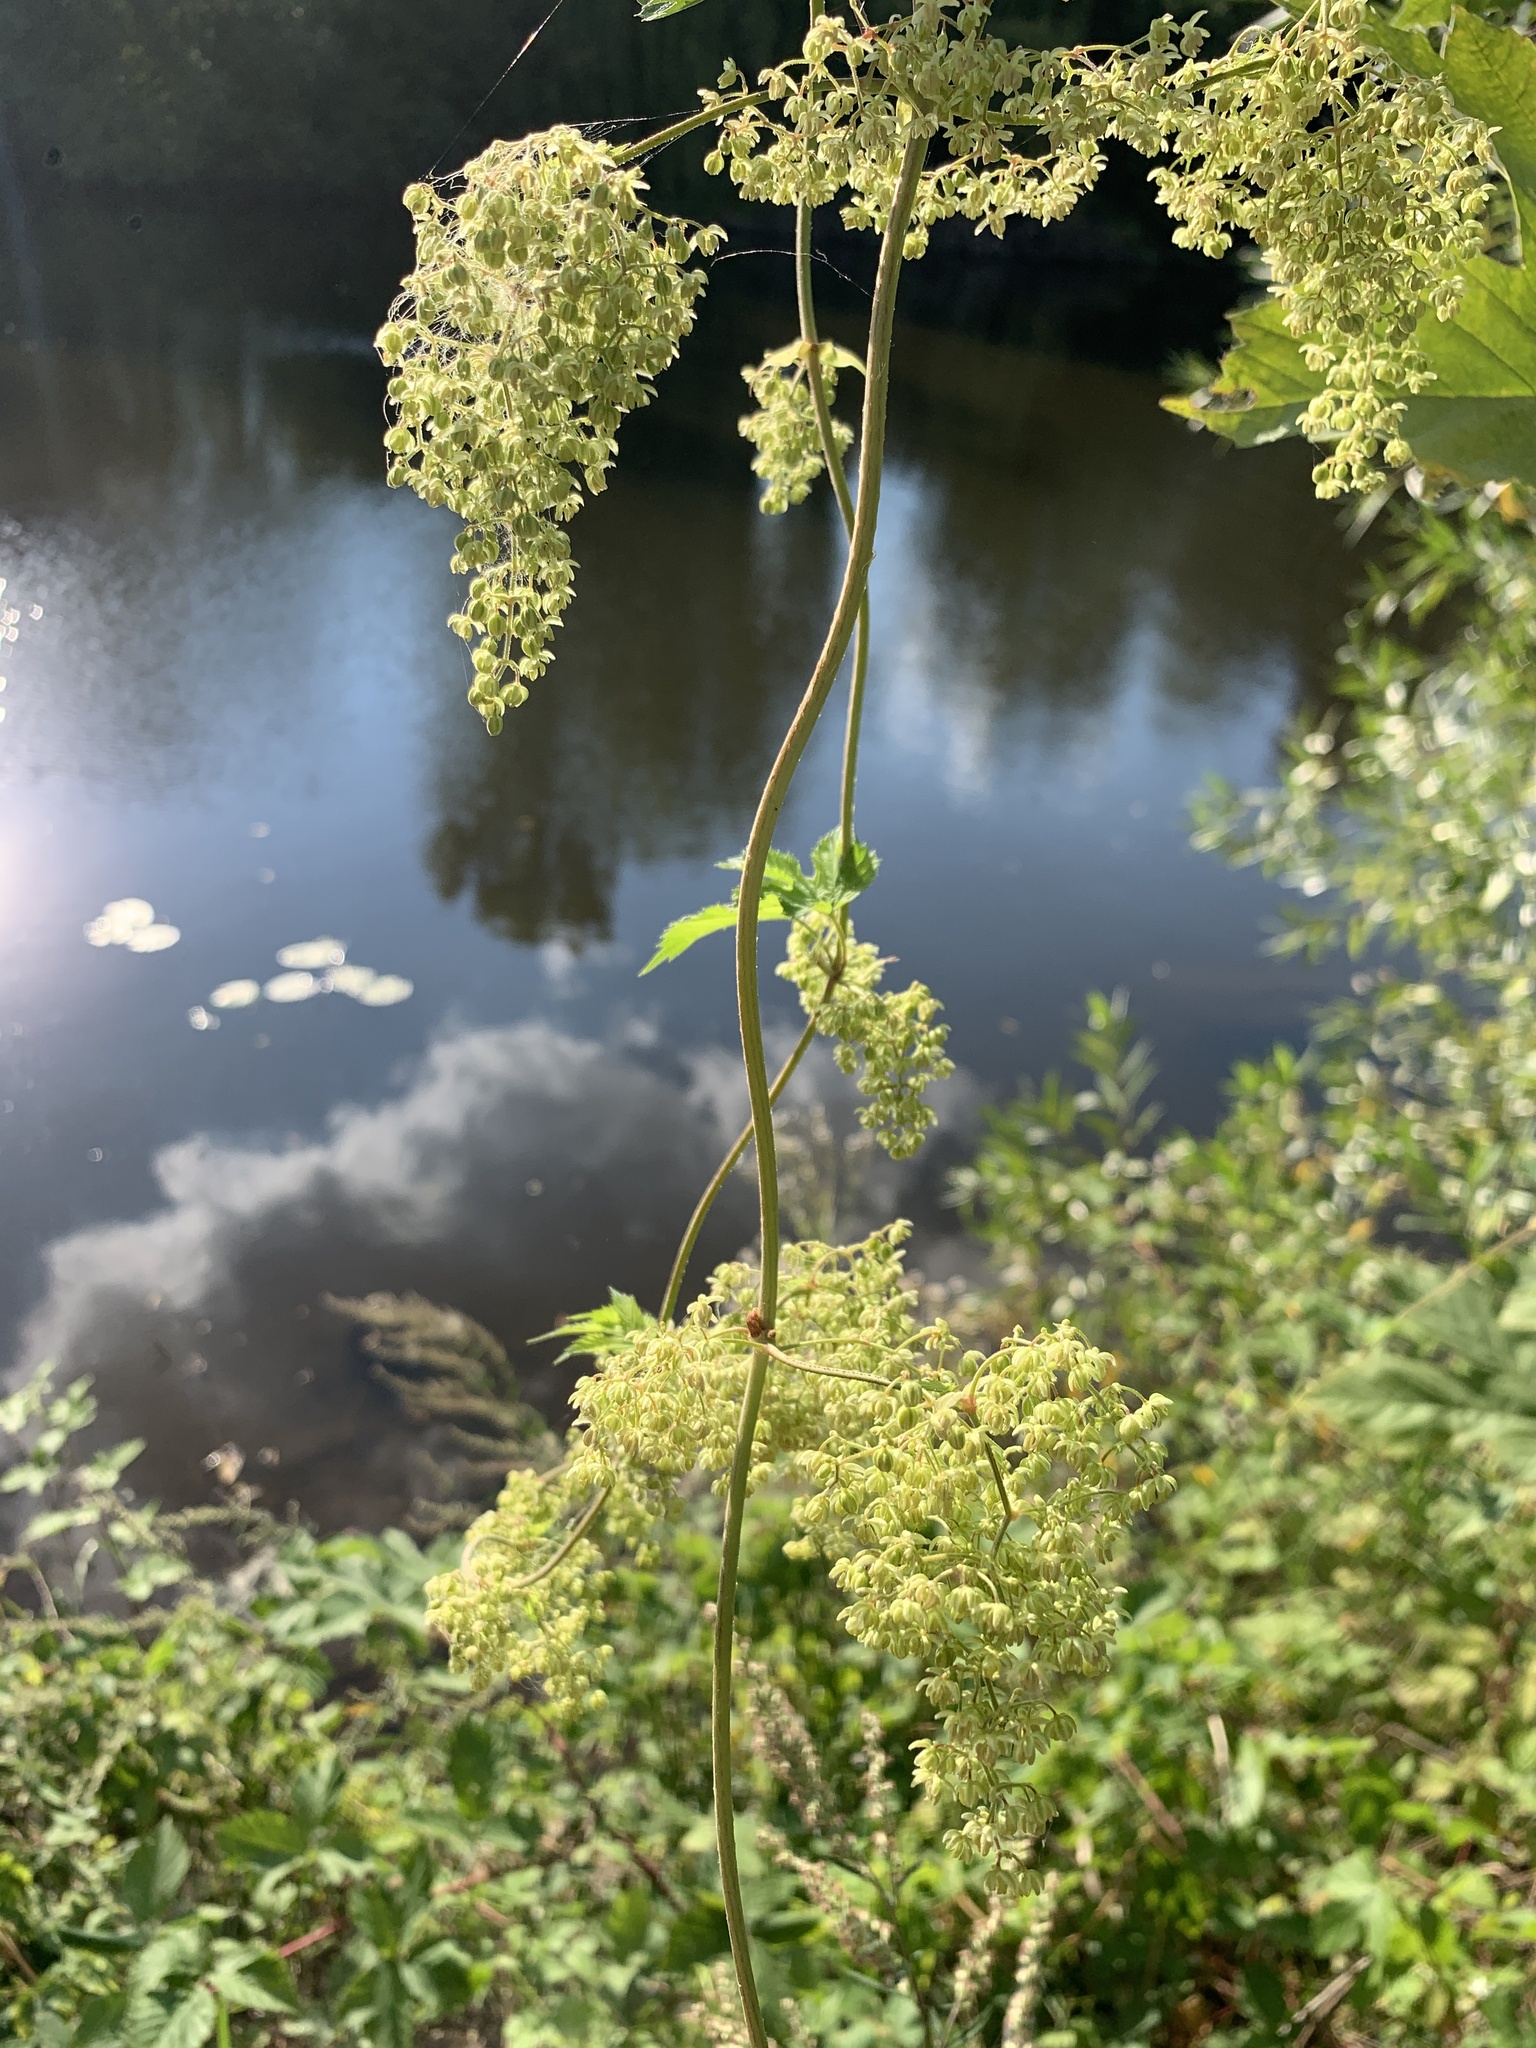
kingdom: Plantae
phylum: Tracheophyta
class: Magnoliopsida
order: Rosales
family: Cannabaceae
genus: Humulus
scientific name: Humulus lupulus
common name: Hop
